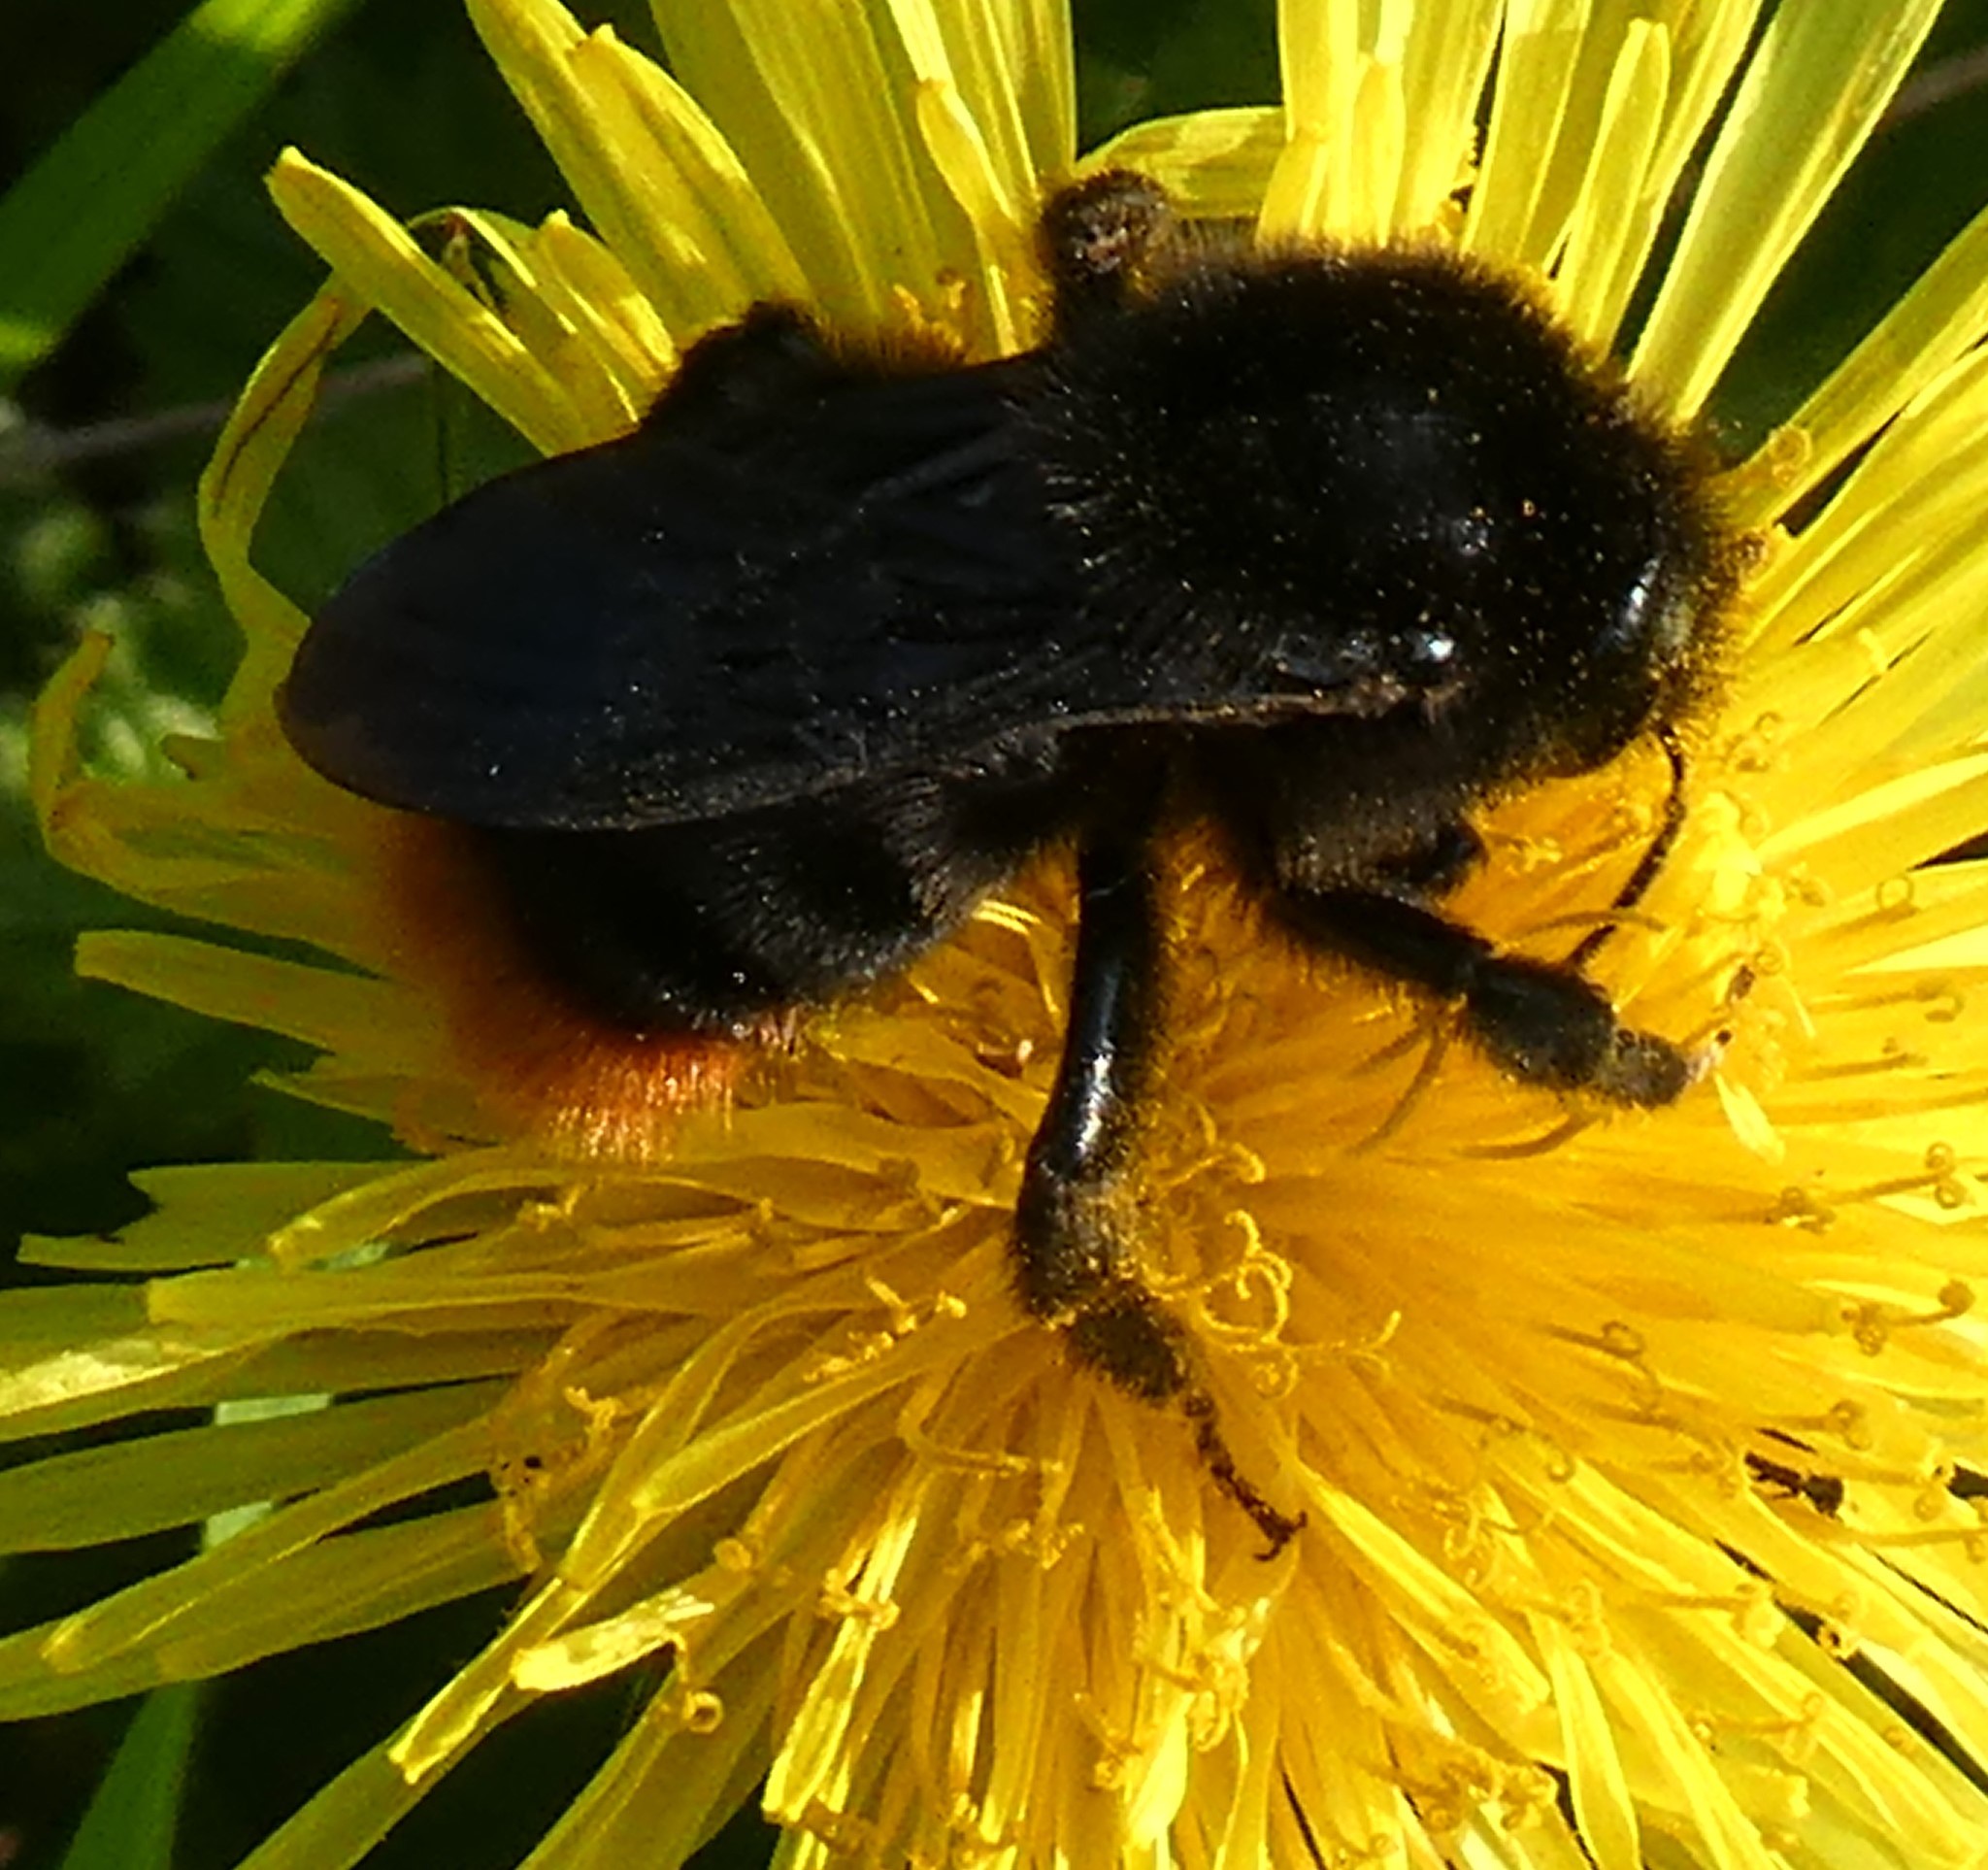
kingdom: Animalia
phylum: Arthropoda
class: Insecta
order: Hymenoptera
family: Apidae
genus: Bombus
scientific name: Bombus rupestris
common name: Hill cuckoo-bee
